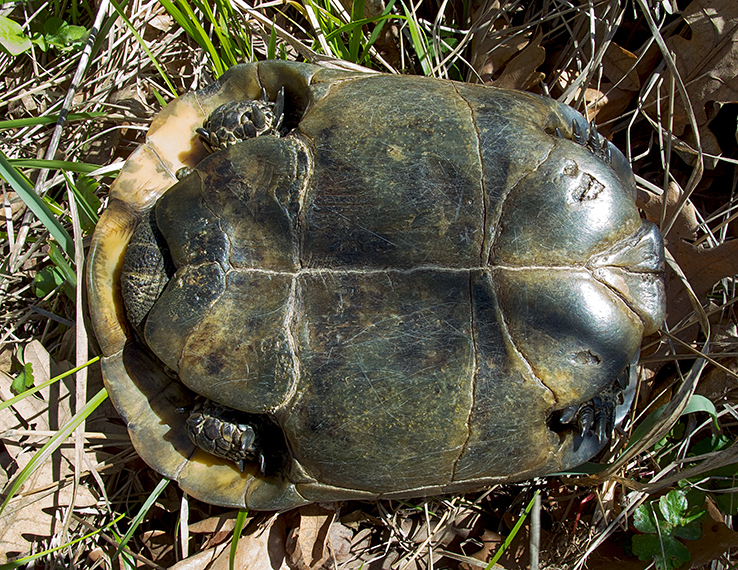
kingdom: Animalia
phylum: Chordata
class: Testudines
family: Testudinidae
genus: Testudo
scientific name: Testudo graeca
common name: Common tortoise
